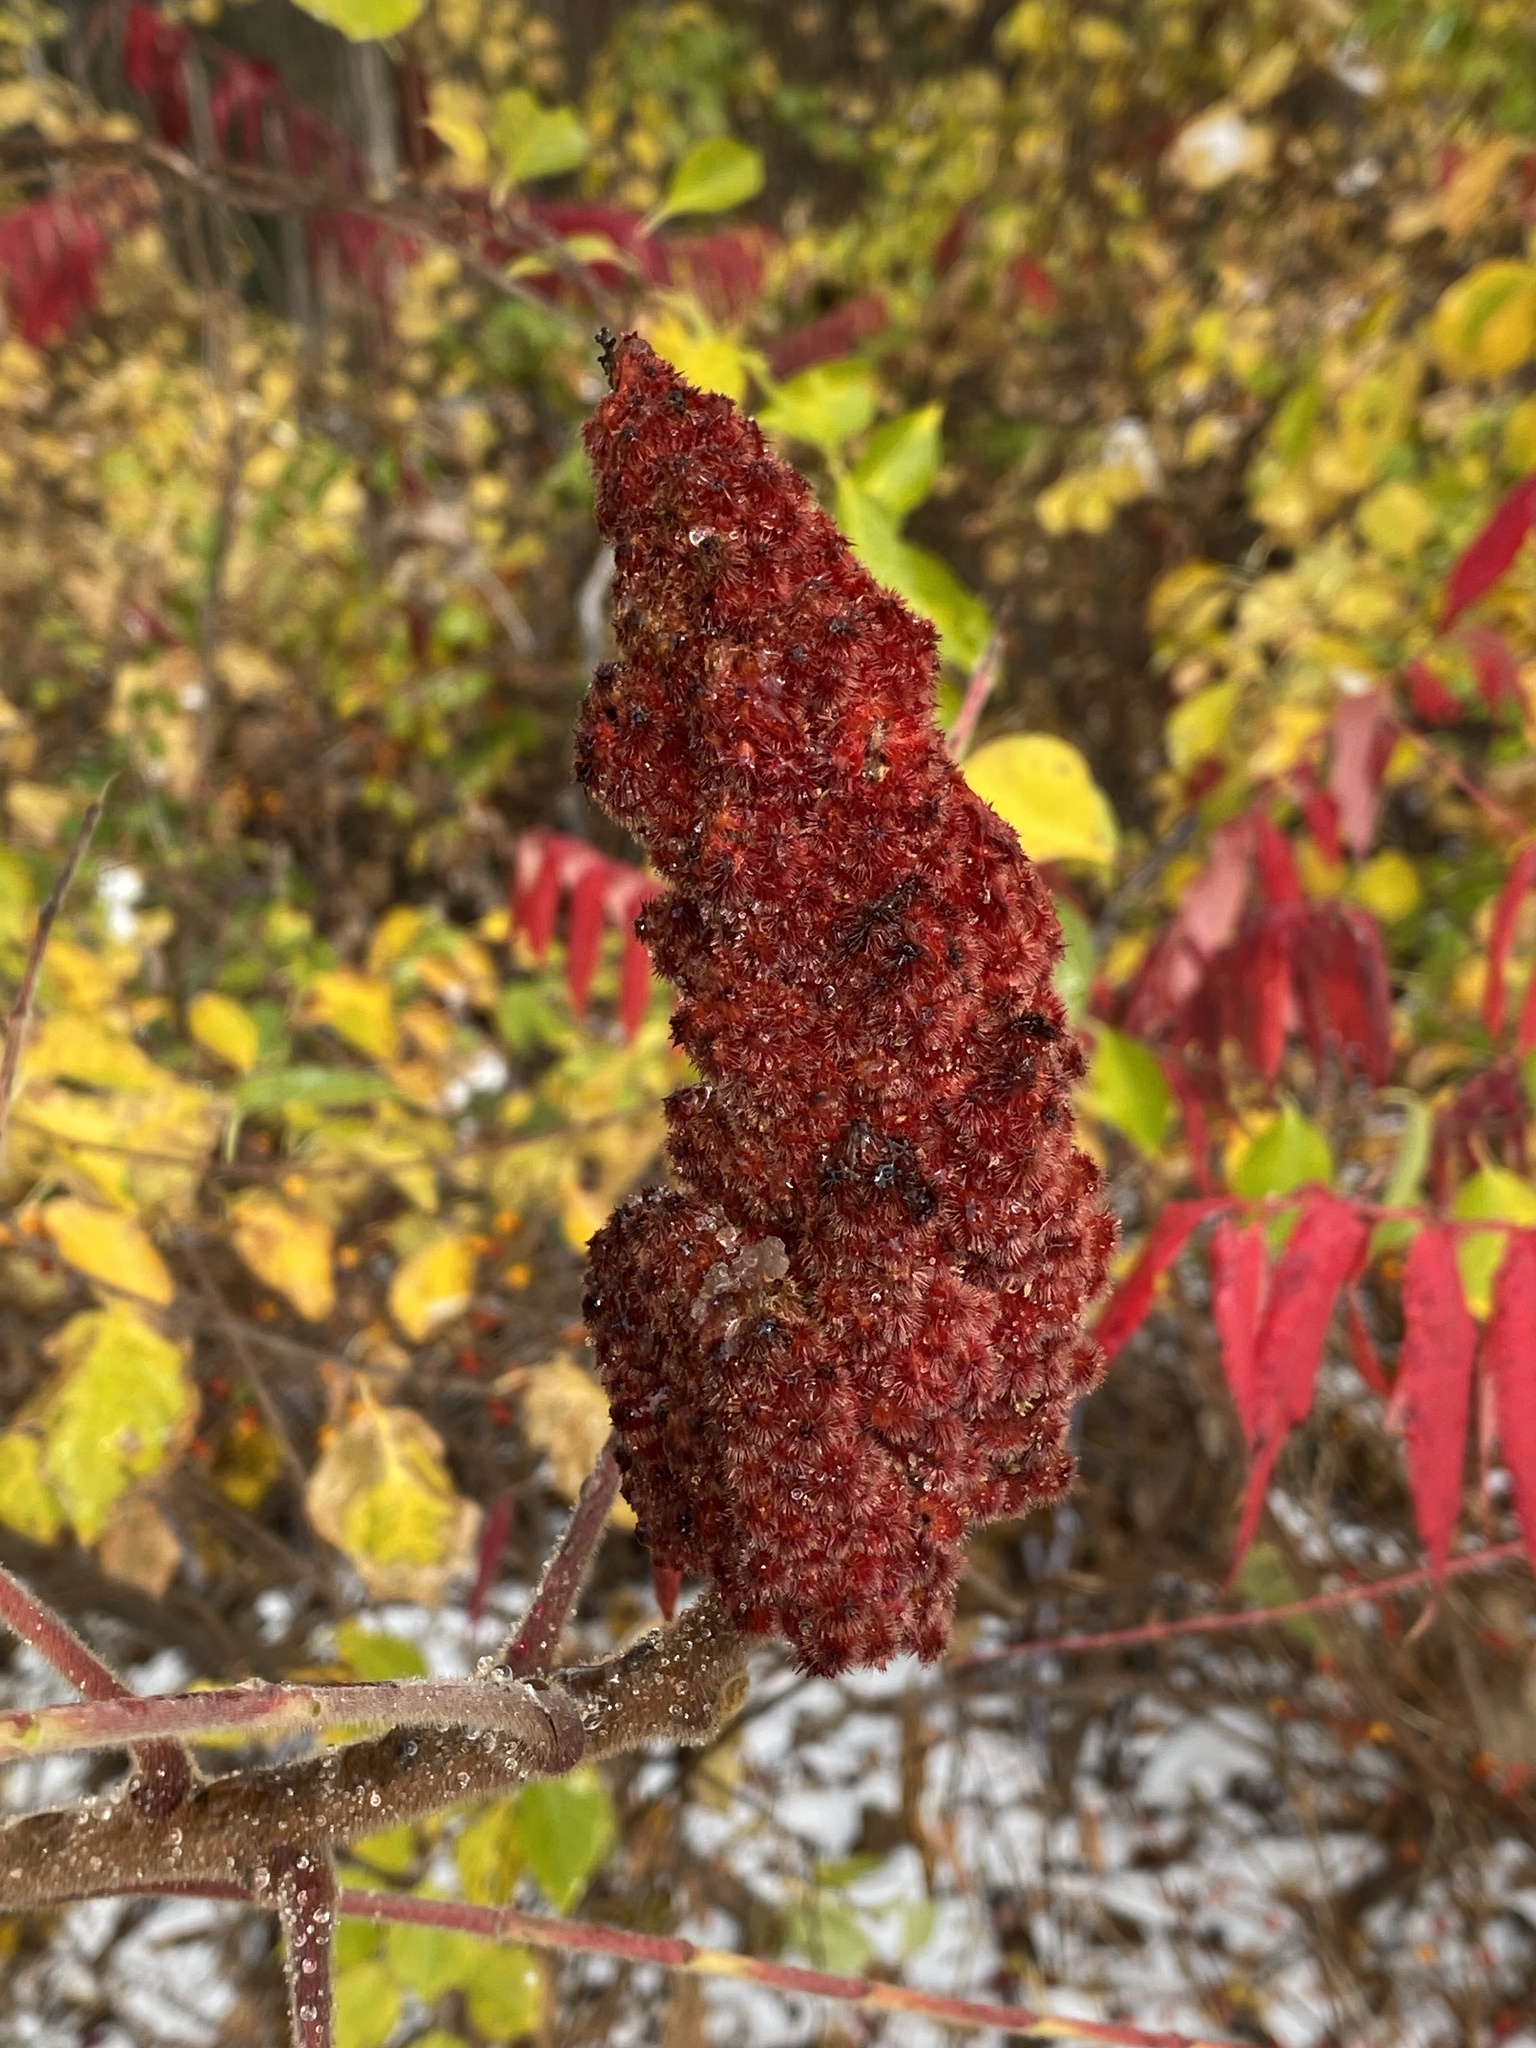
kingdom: Plantae
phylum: Tracheophyta
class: Magnoliopsida
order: Sapindales
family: Anacardiaceae
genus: Rhus
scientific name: Rhus typhina
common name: Staghorn sumac
